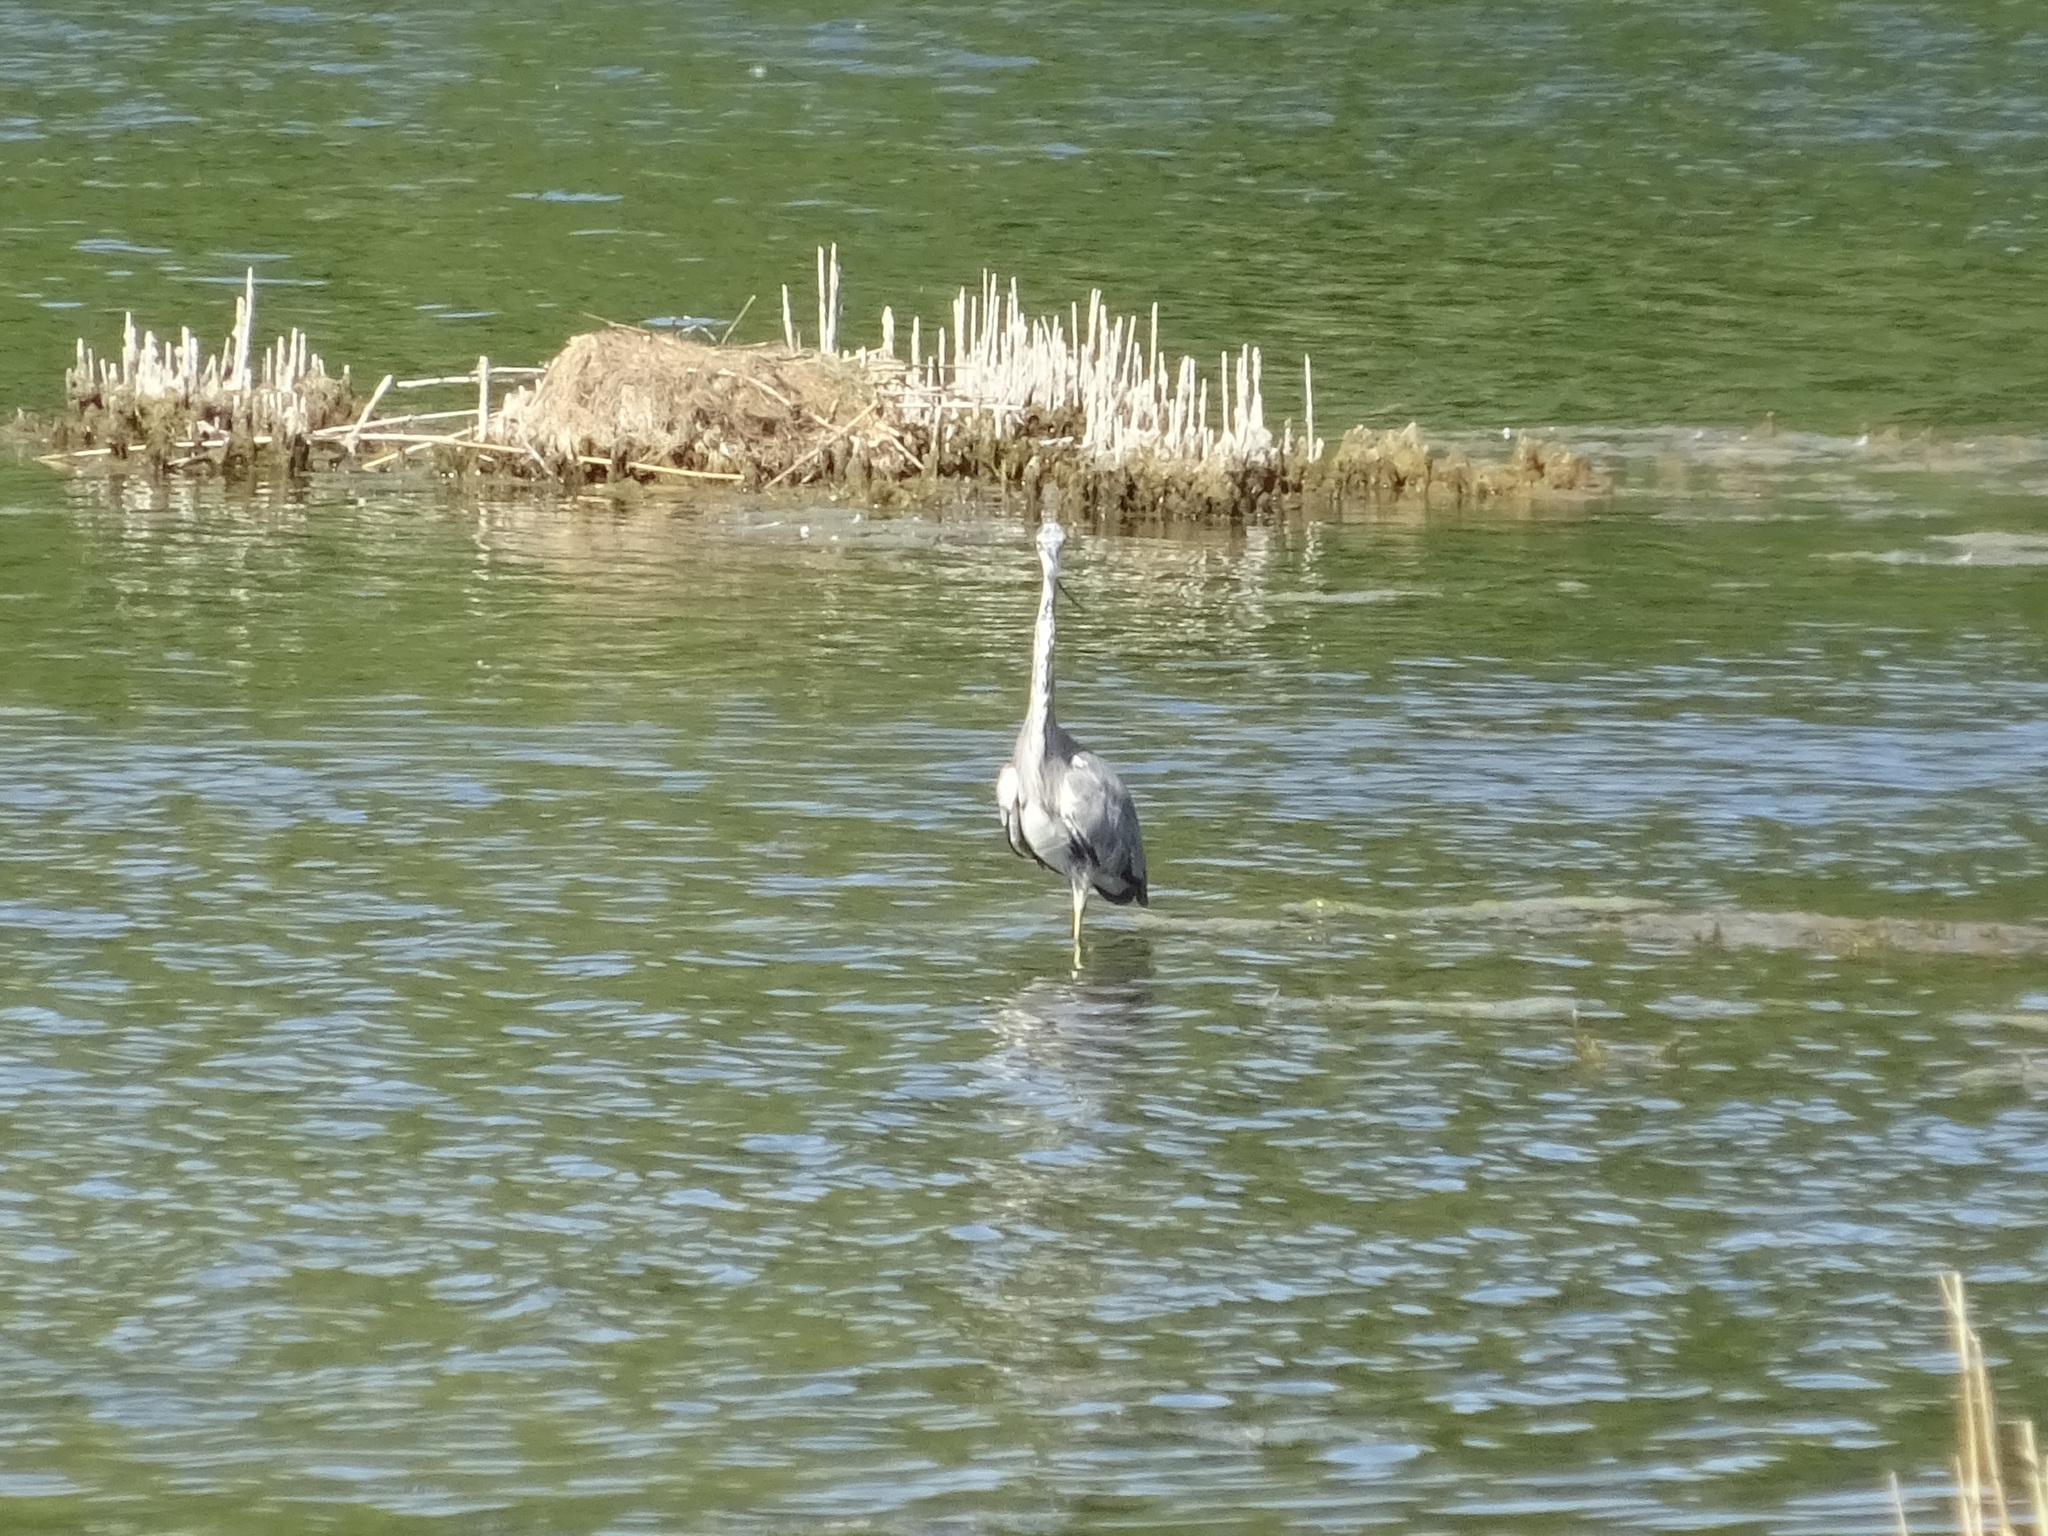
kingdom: Animalia
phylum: Chordata
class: Aves
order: Pelecaniformes
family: Ardeidae
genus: Ardea
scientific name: Ardea cinerea
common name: Grey heron
